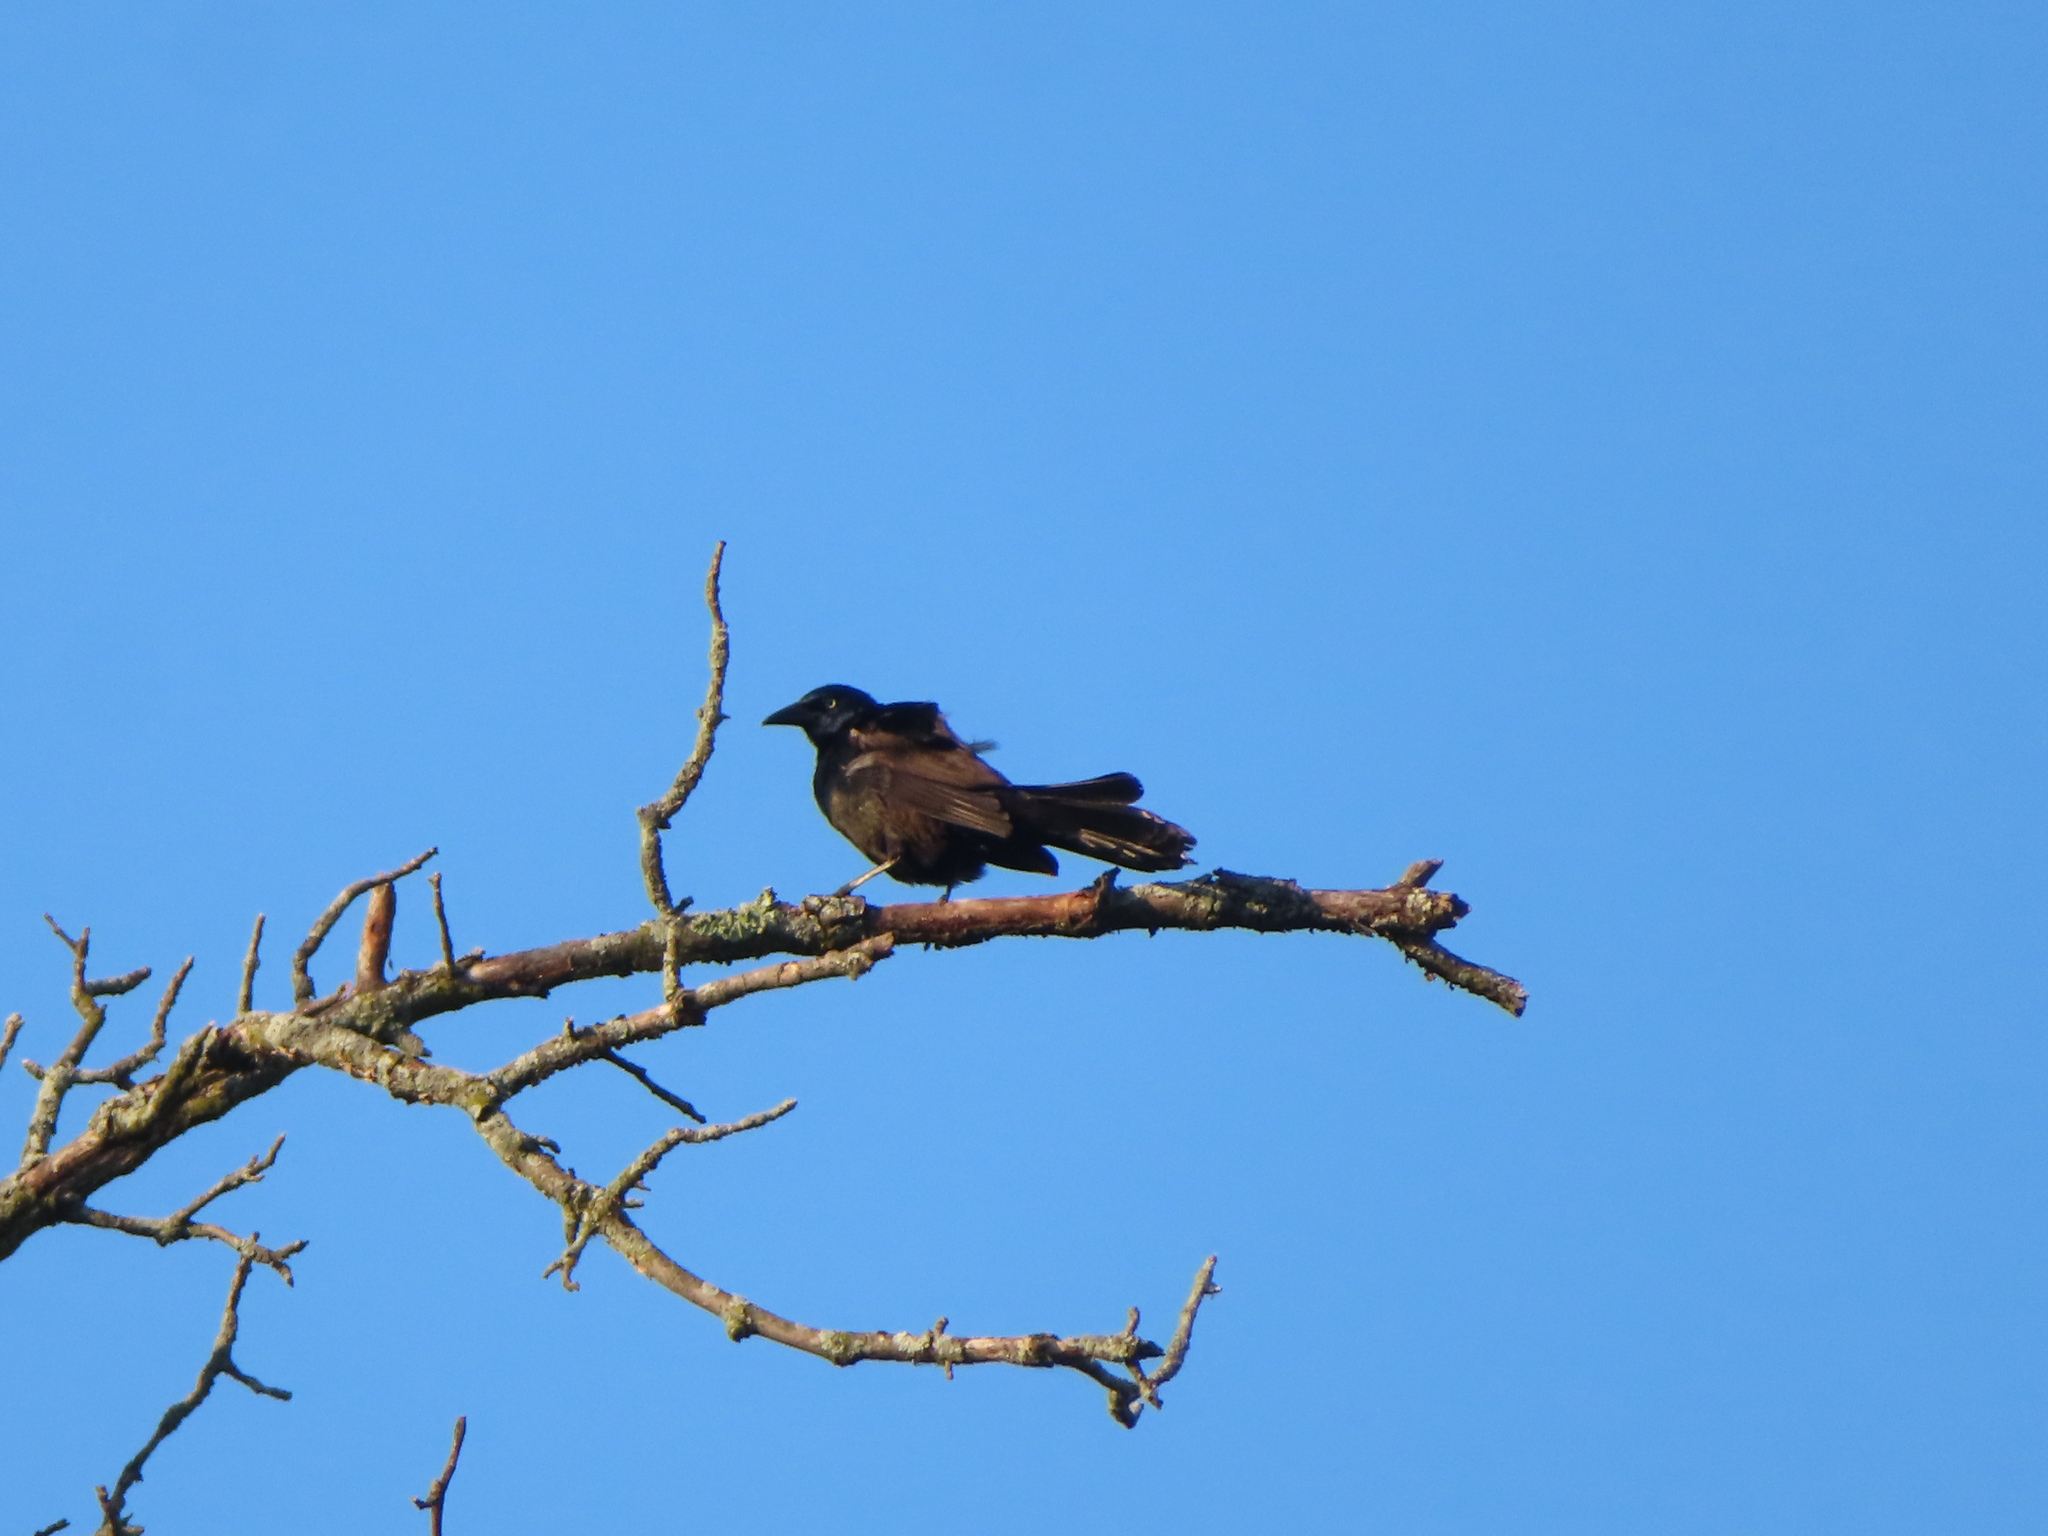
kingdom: Animalia
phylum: Chordata
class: Aves
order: Passeriformes
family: Icteridae
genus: Quiscalus
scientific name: Quiscalus quiscula
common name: Common grackle
